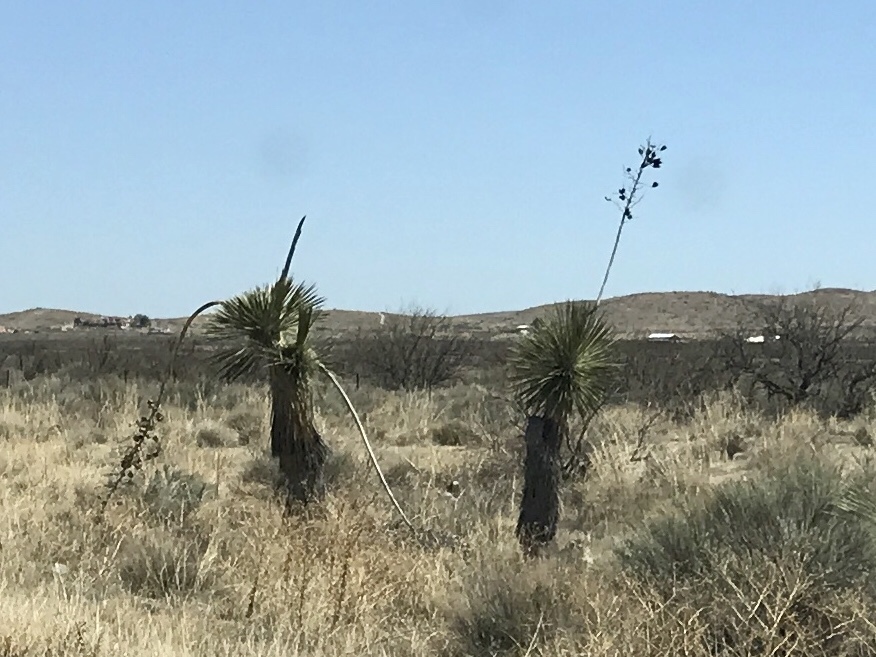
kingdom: Plantae
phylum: Tracheophyta
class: Liliopsida
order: Asparagales
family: Asparagaceae
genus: Yucca
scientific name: Yucca elata
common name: Palmella
